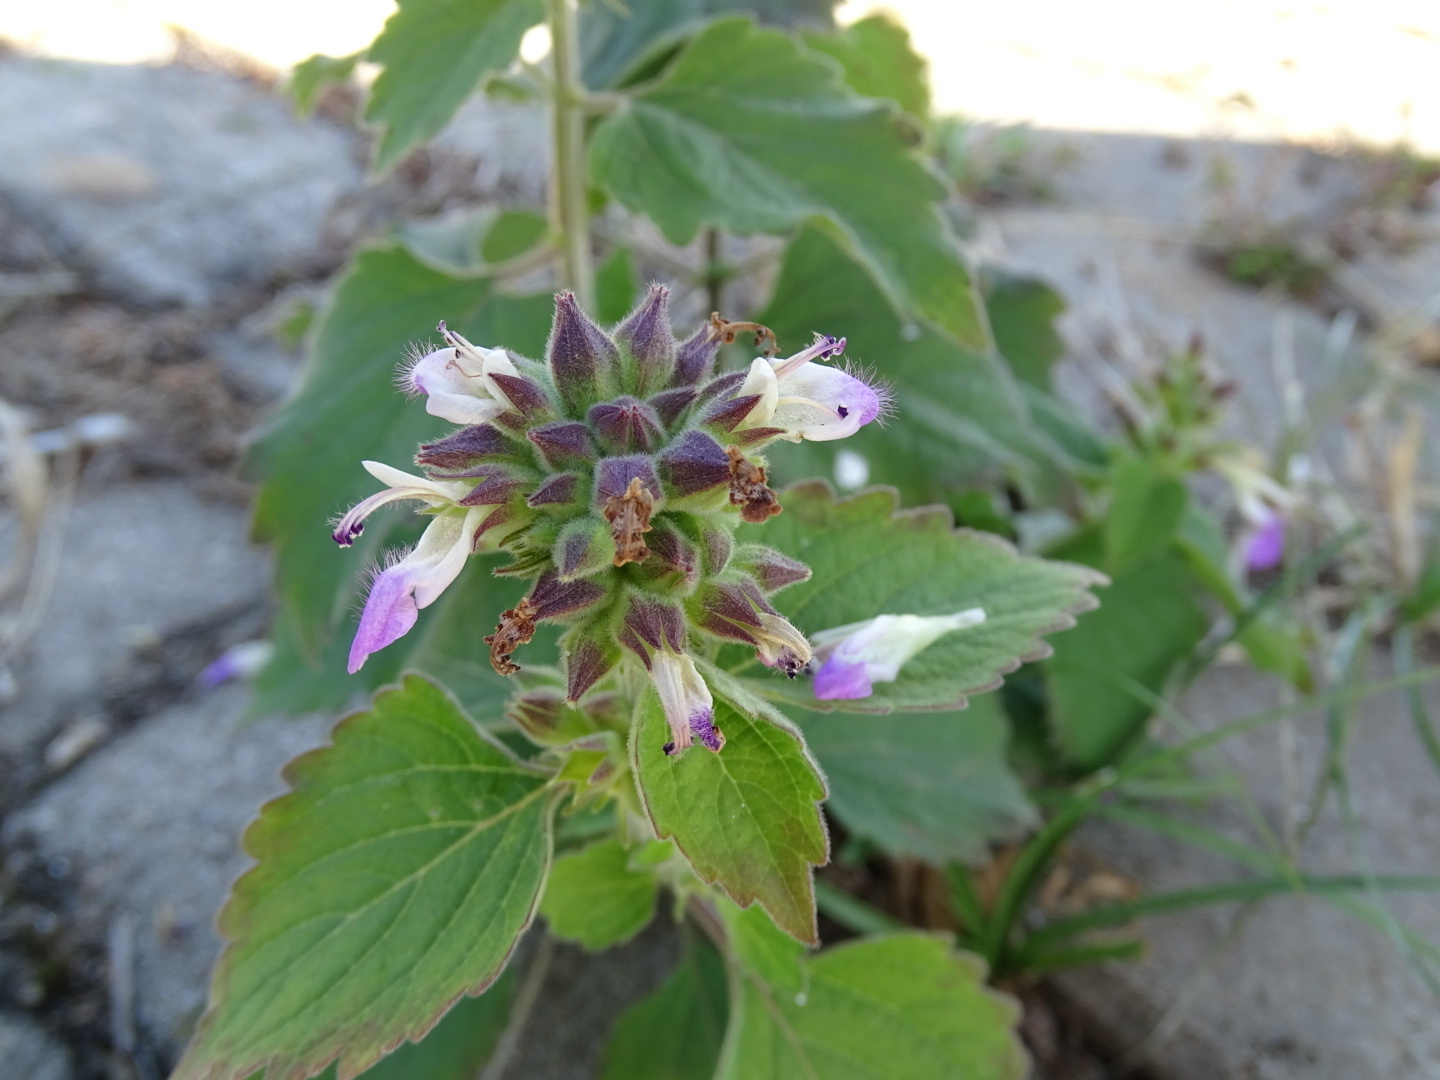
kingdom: Plantae
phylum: Tracheophyta
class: Magnoliopsida
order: Lamiales
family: Lamiaceae
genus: Anisomeles
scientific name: Anisomeles indica
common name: Catmint
